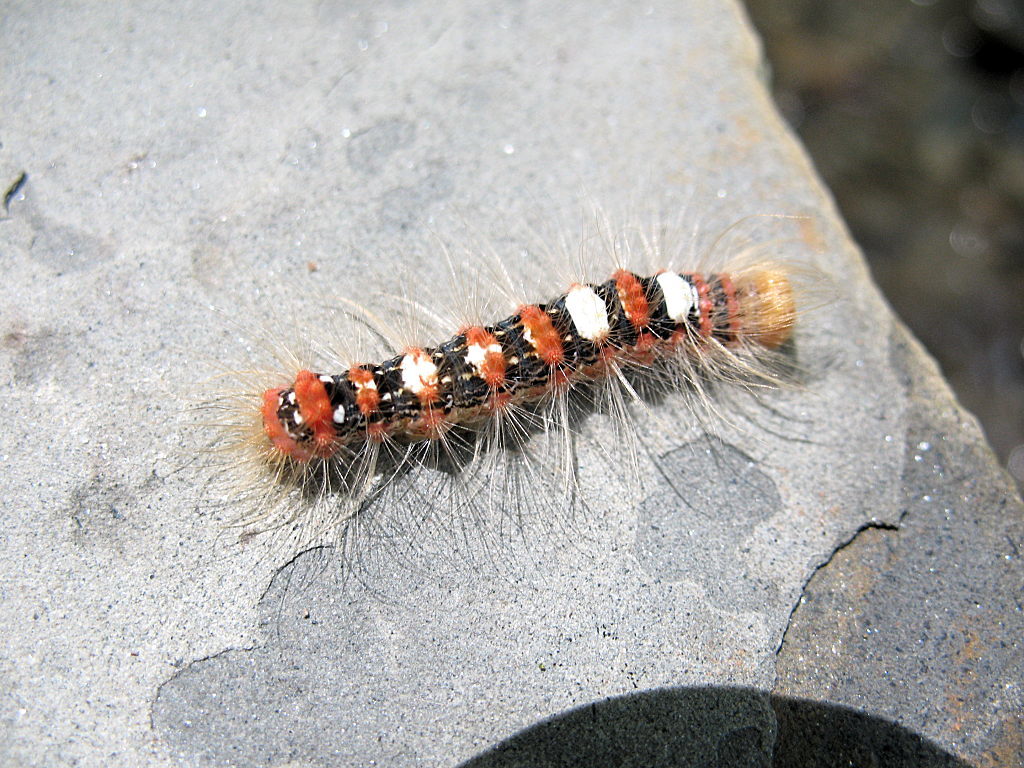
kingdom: Animalia
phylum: Arthropoda
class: Insecta
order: Lepidoptera
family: Erebidae
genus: Leucoma
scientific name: Leucoma salicis
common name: White satin moth
